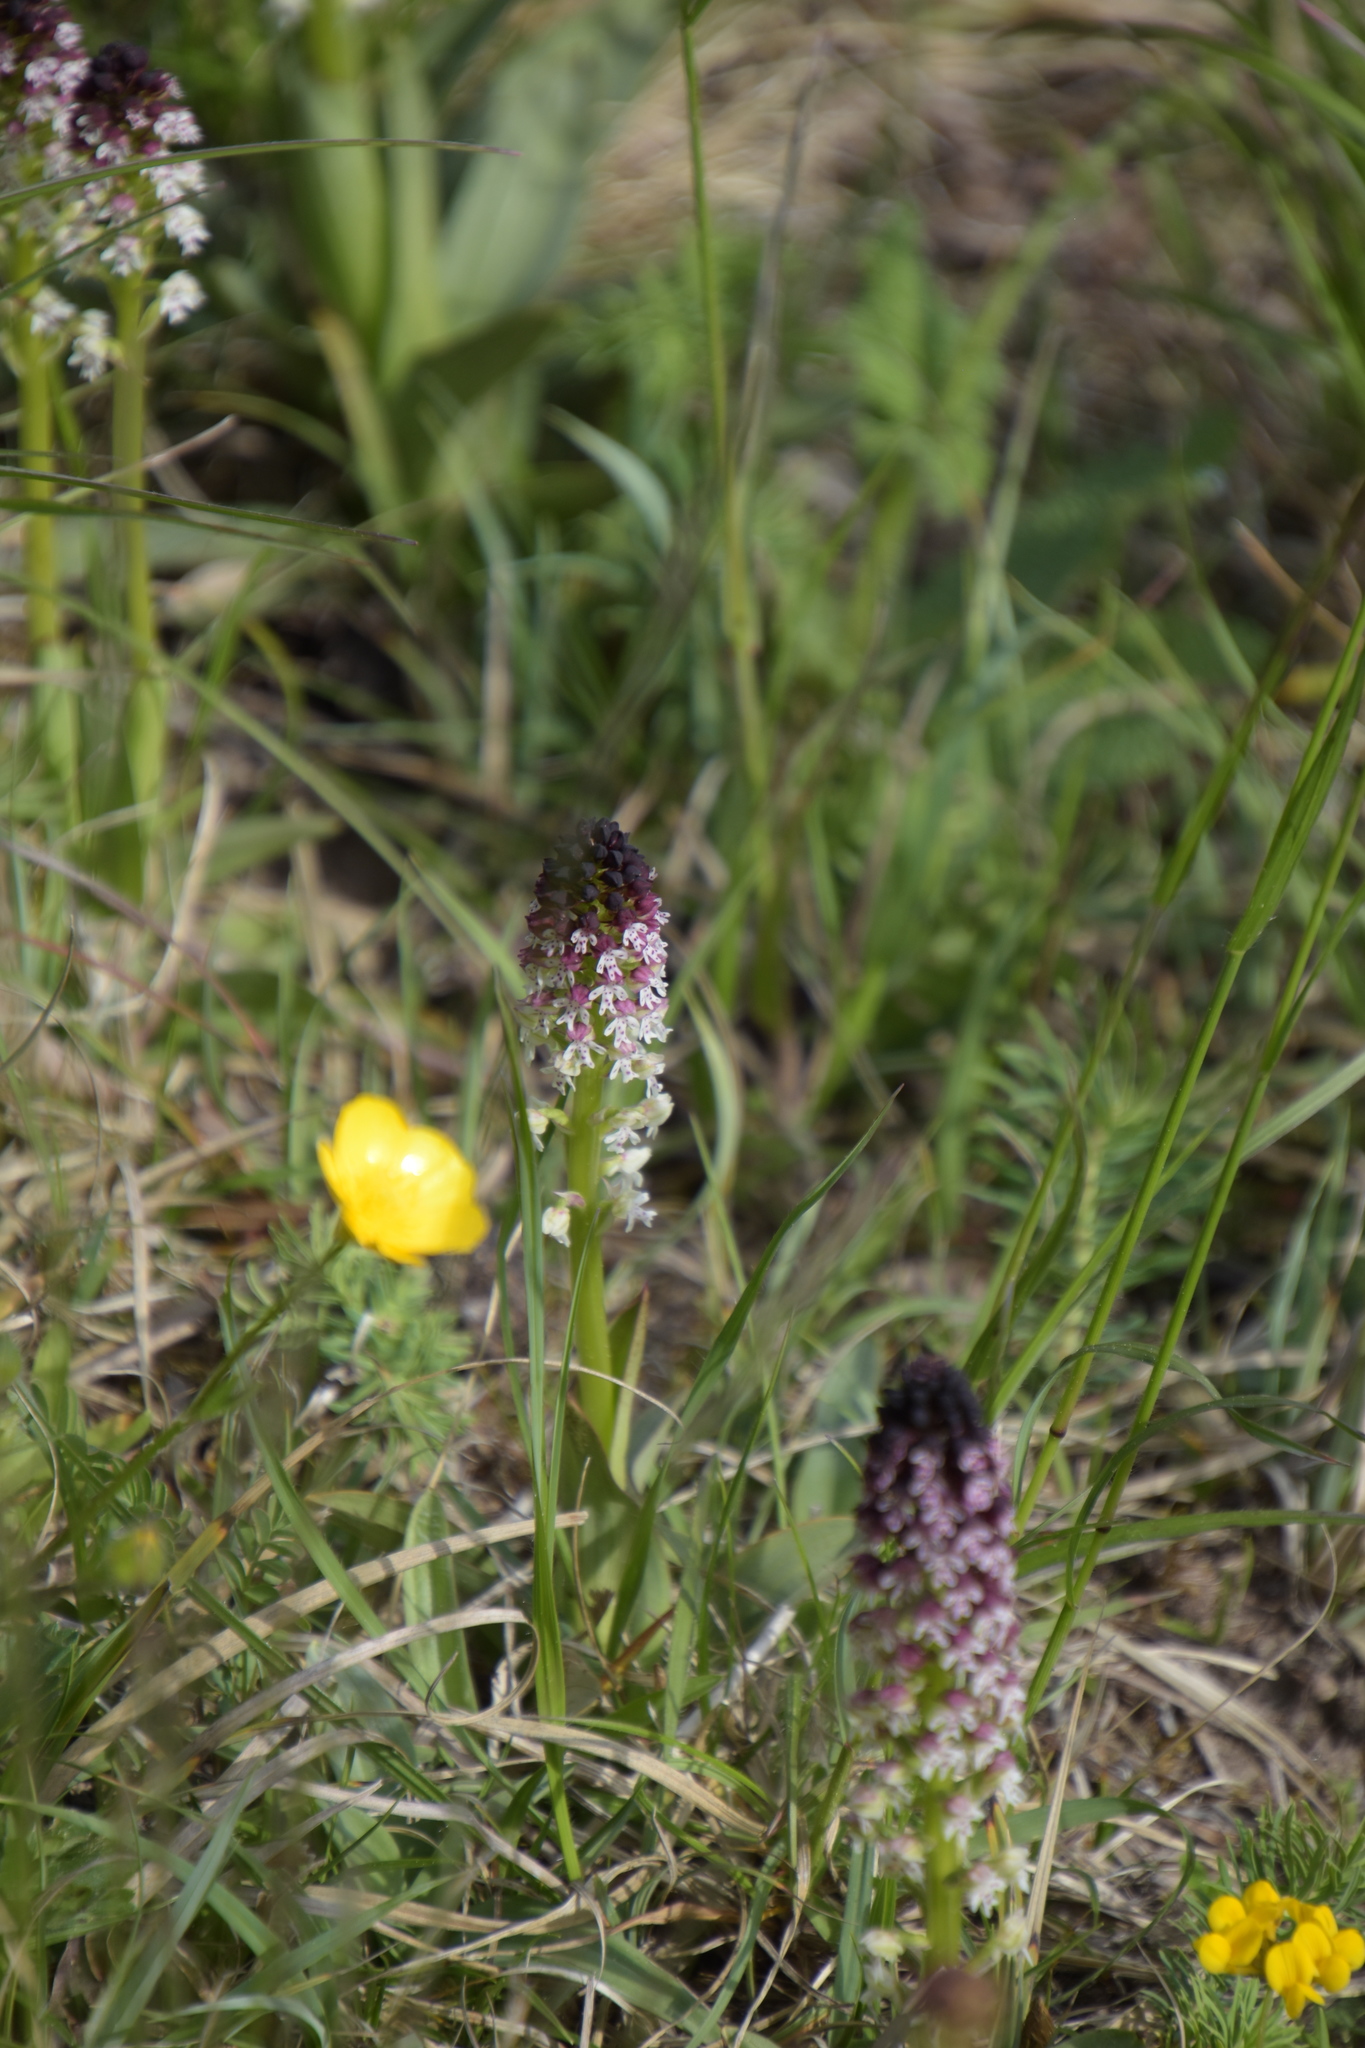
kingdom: Plantae
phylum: Tracheophyta
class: Liliopsida
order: Asparagales
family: Orchidaceae
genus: Neotinea
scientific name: Neotinea ustulata
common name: Burnt orchid
